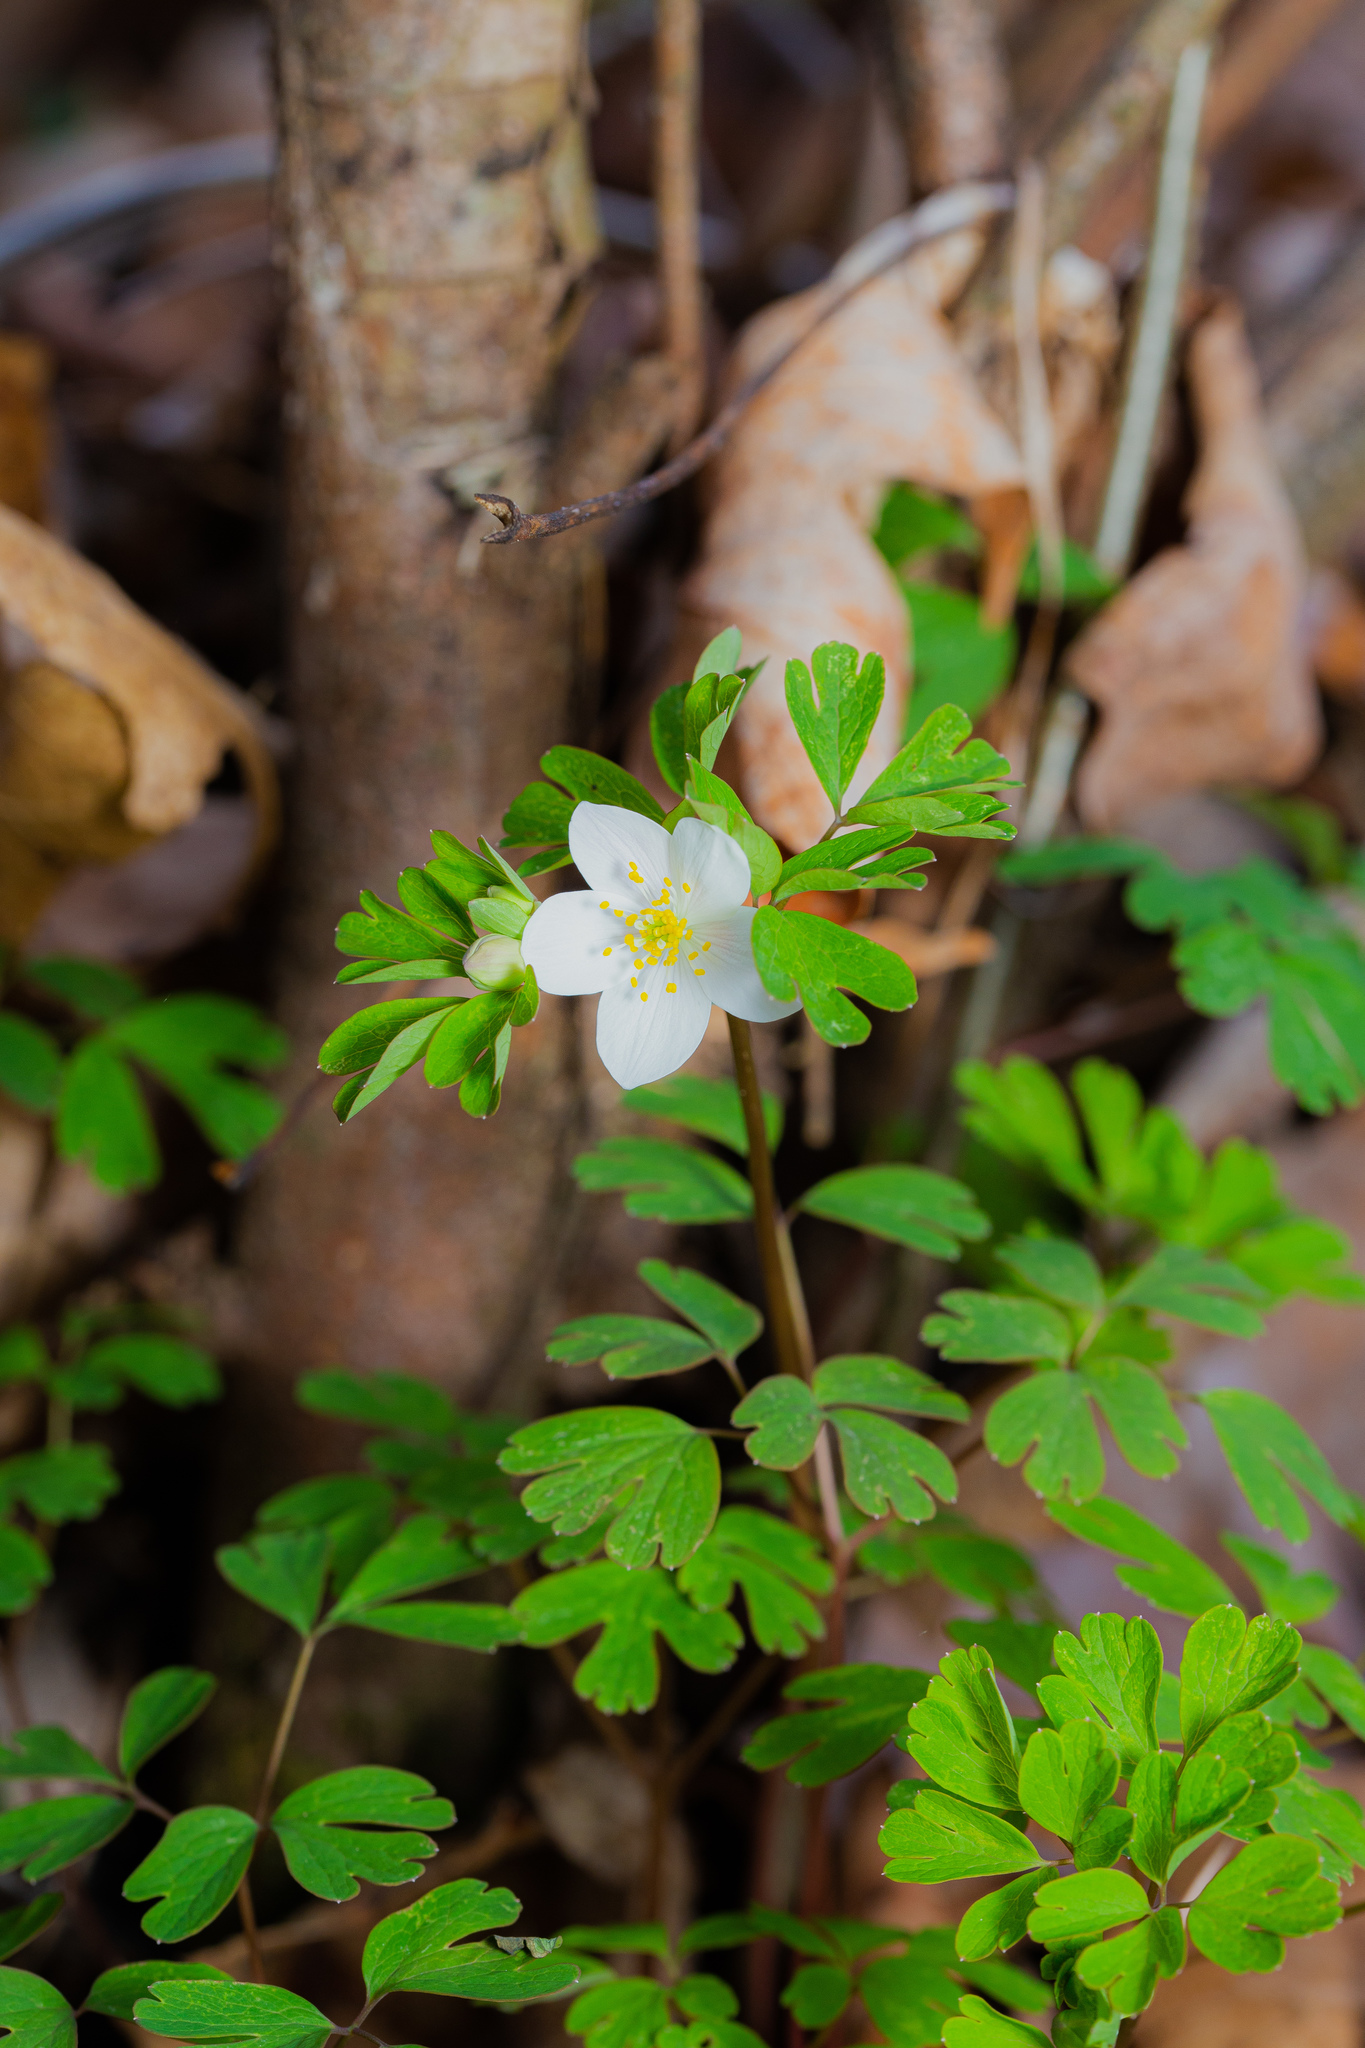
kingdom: Plantae
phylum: Tracheophyta
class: Magnoliopsida
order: Ranunculales
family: Ranunculaceae
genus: Enemion
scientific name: Enemion biternatum
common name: Eastern false rue-anemone
